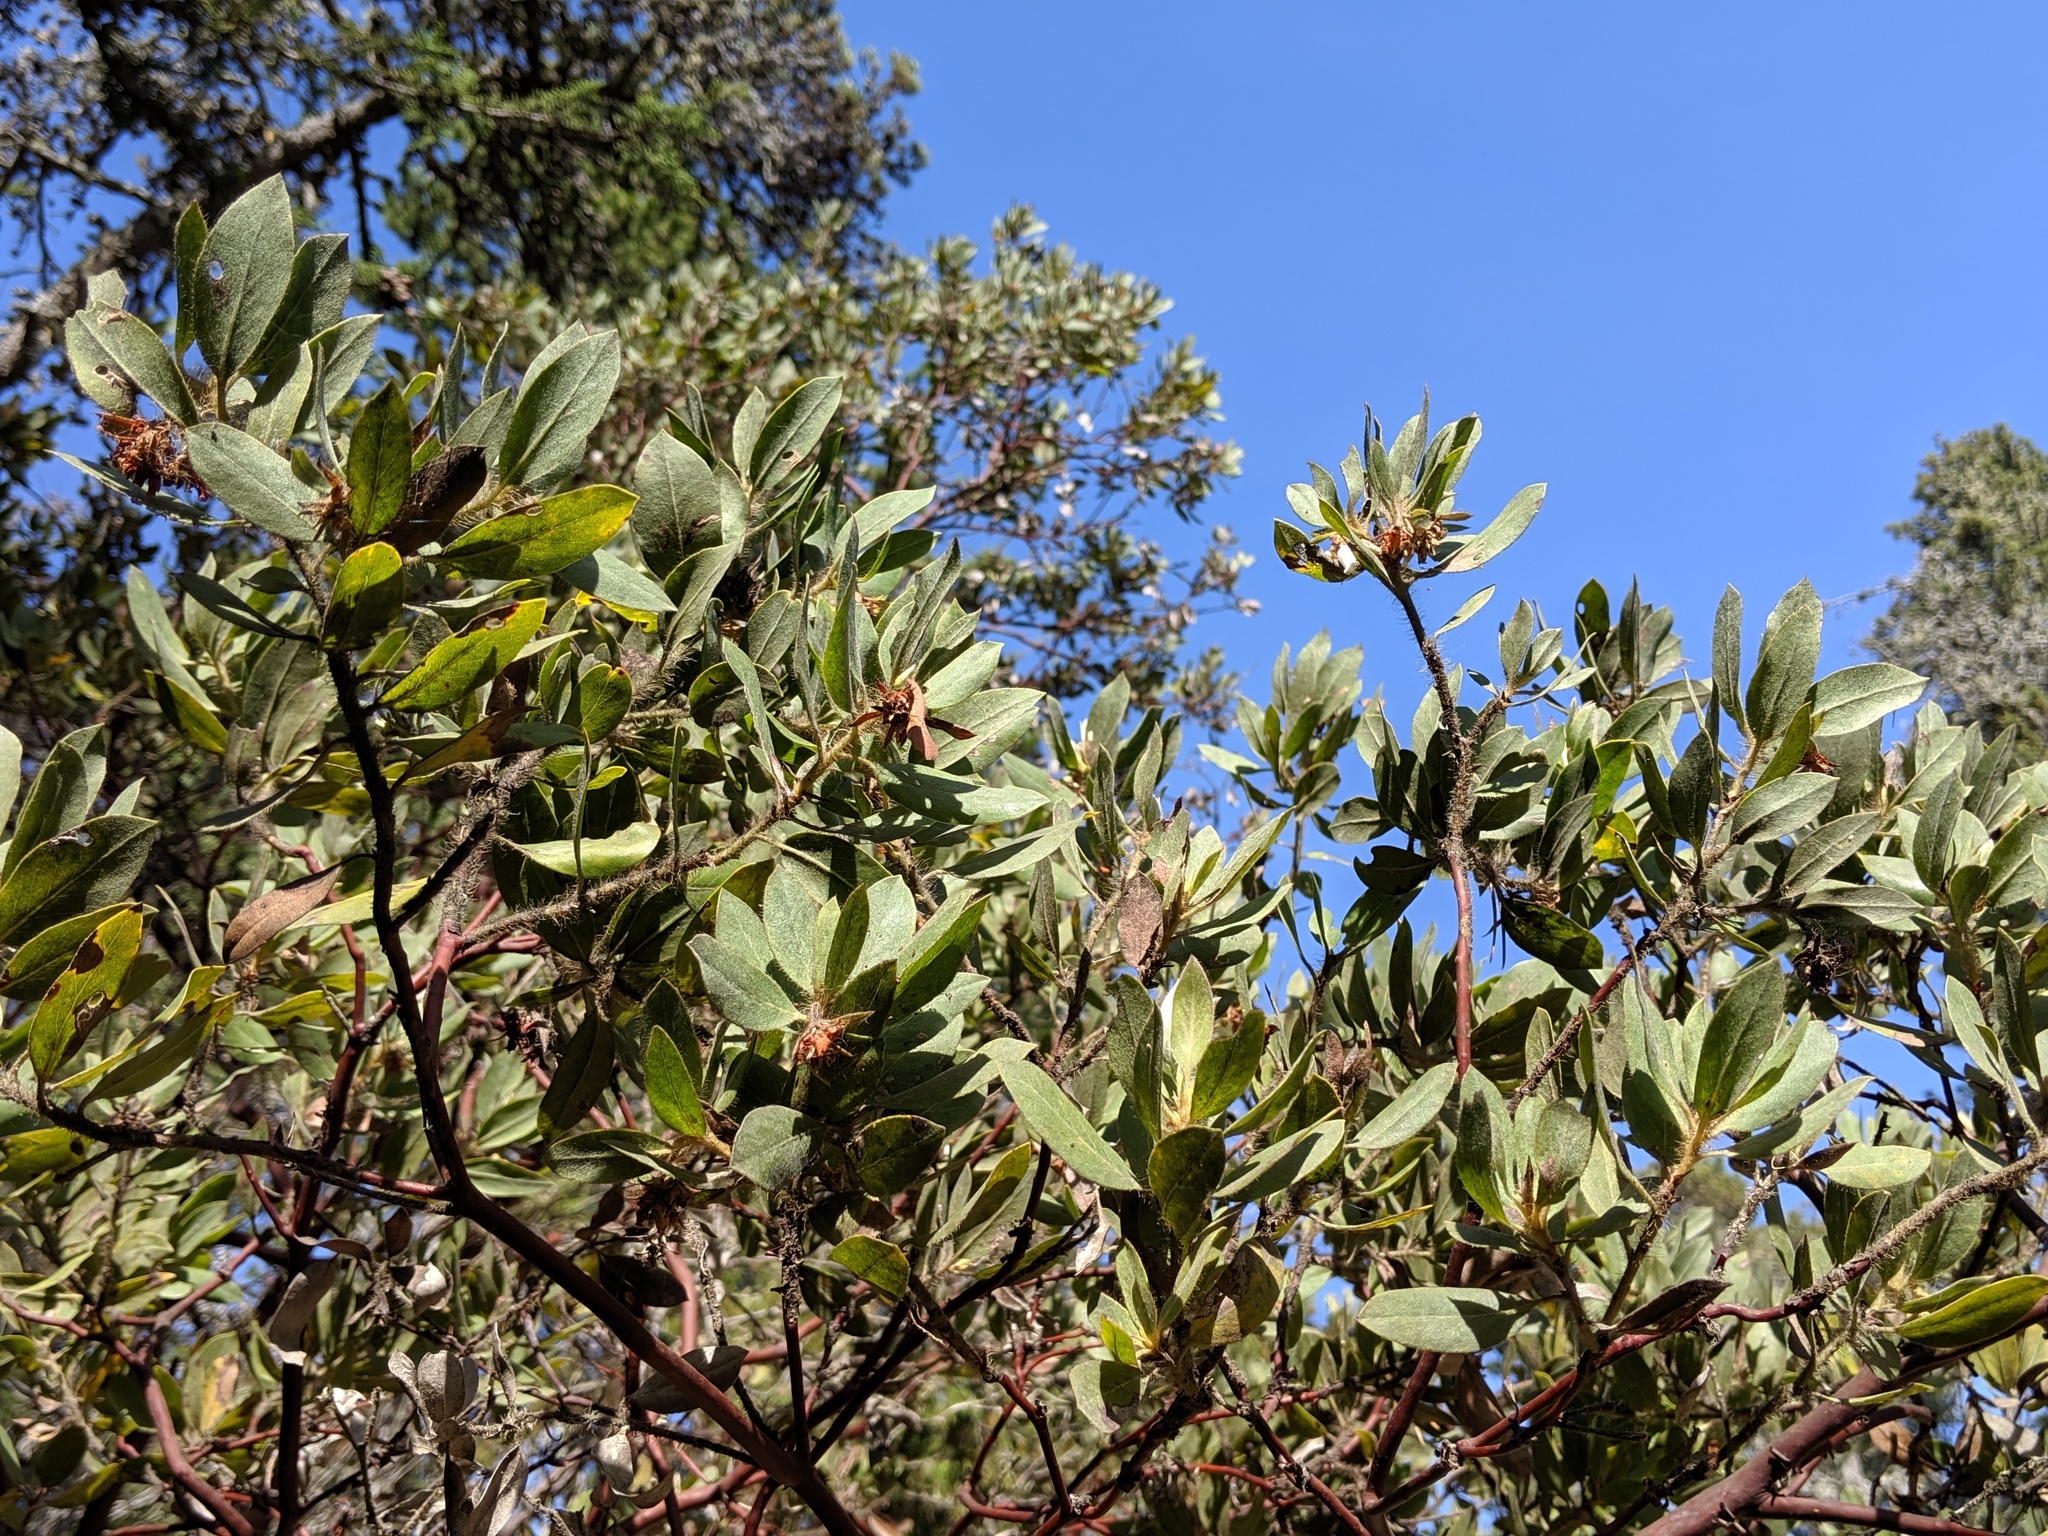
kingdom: Plantae
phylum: Tracheophyta
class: Magnoliopsida
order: Ericales
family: Ericaceae
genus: Arctostaphylos
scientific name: Arctostaphylos columbiana
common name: Bristly bearberry
